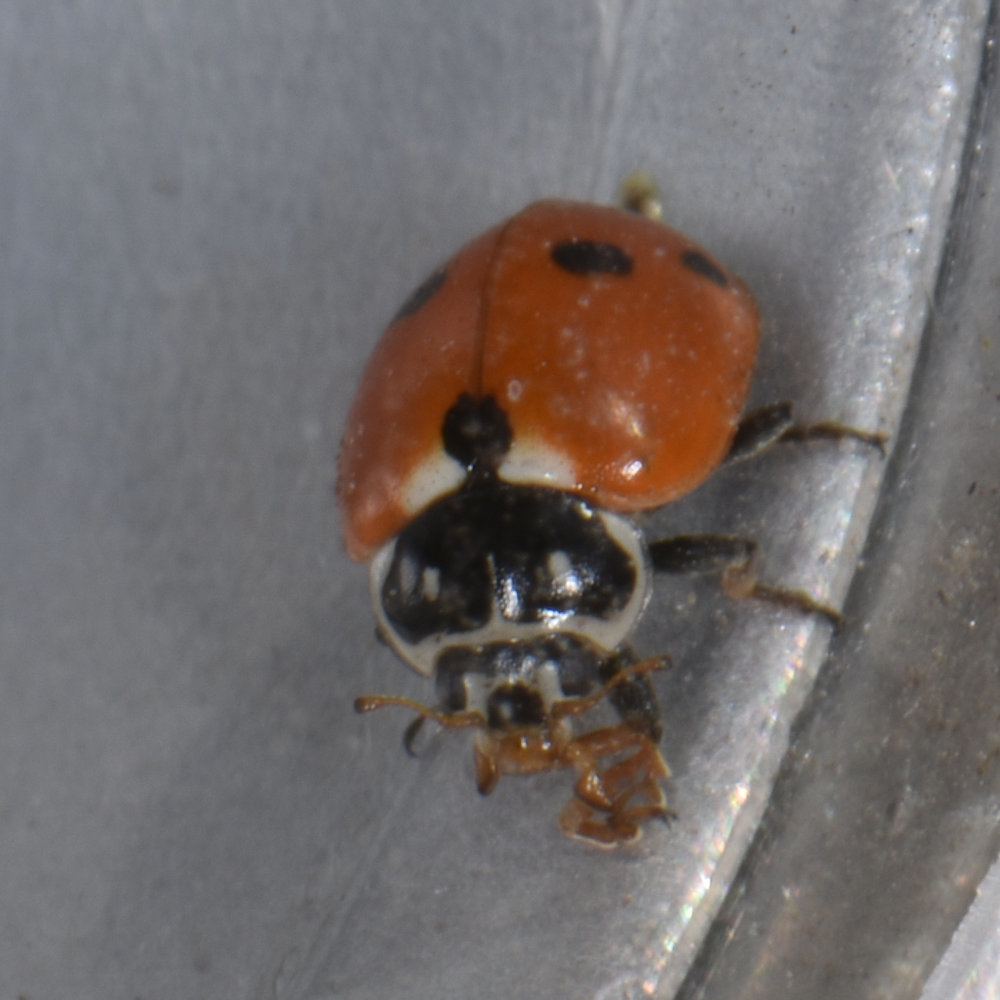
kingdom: Animalia
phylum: Arthropoda
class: Insecta
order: Coleoptera
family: Coccinellidae
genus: Hippodamia
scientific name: Hippodamia variegata
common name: Ladybird beetle
